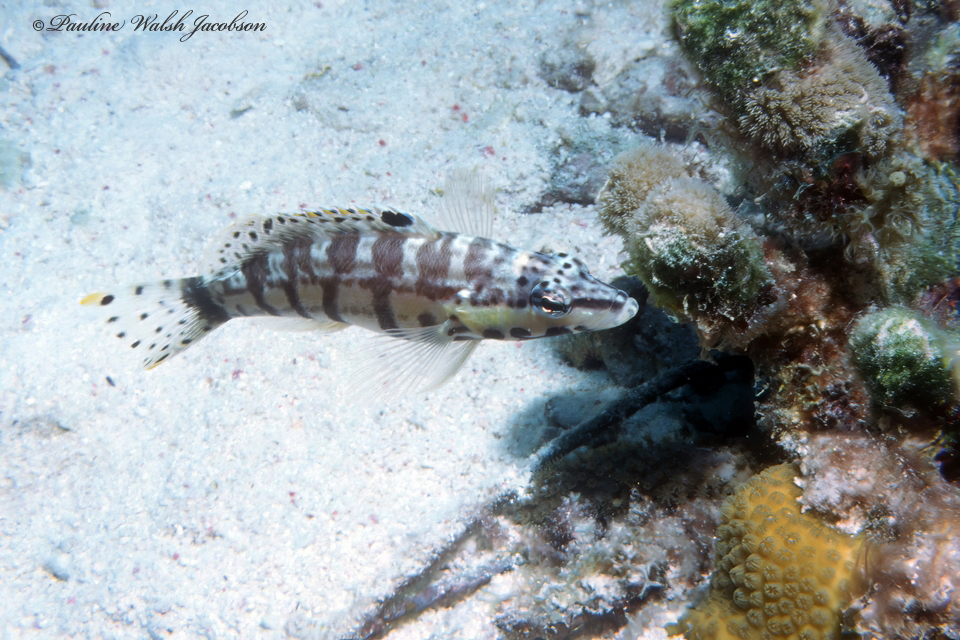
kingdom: Animalia
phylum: Chordata
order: Perciformes
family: Serranidae
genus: Serranus
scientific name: Serranus tigrinus
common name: Harlequin bass
